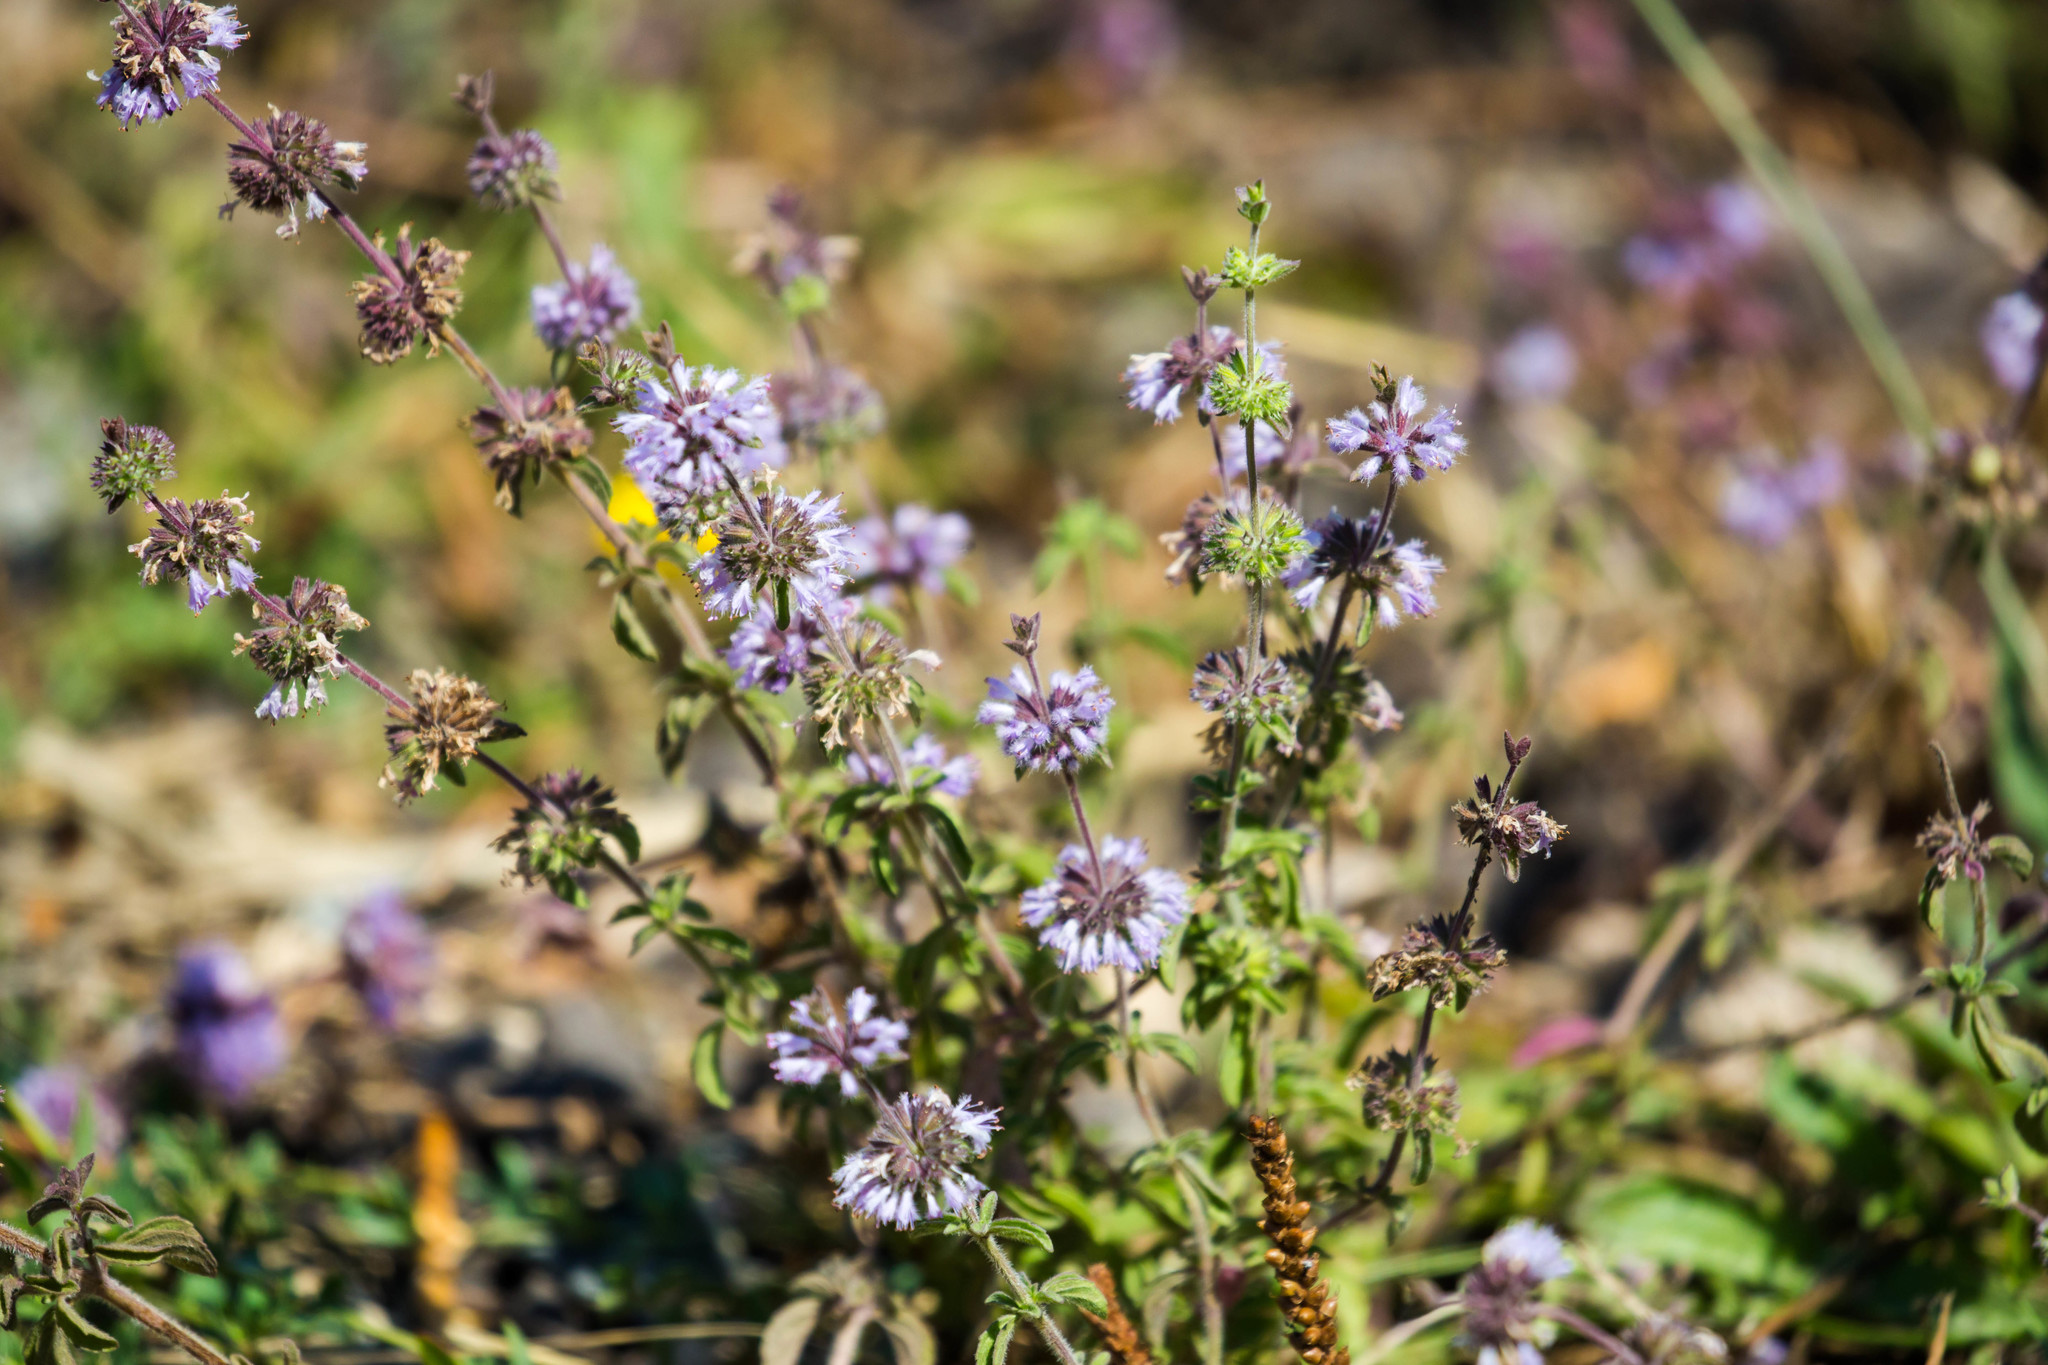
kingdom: Plantae
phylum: Tracheophyta
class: Magnoliopsida
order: Lamiales
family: Lamiaceae
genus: Mentha
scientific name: Mentha pulegium
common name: Pennyroyal
